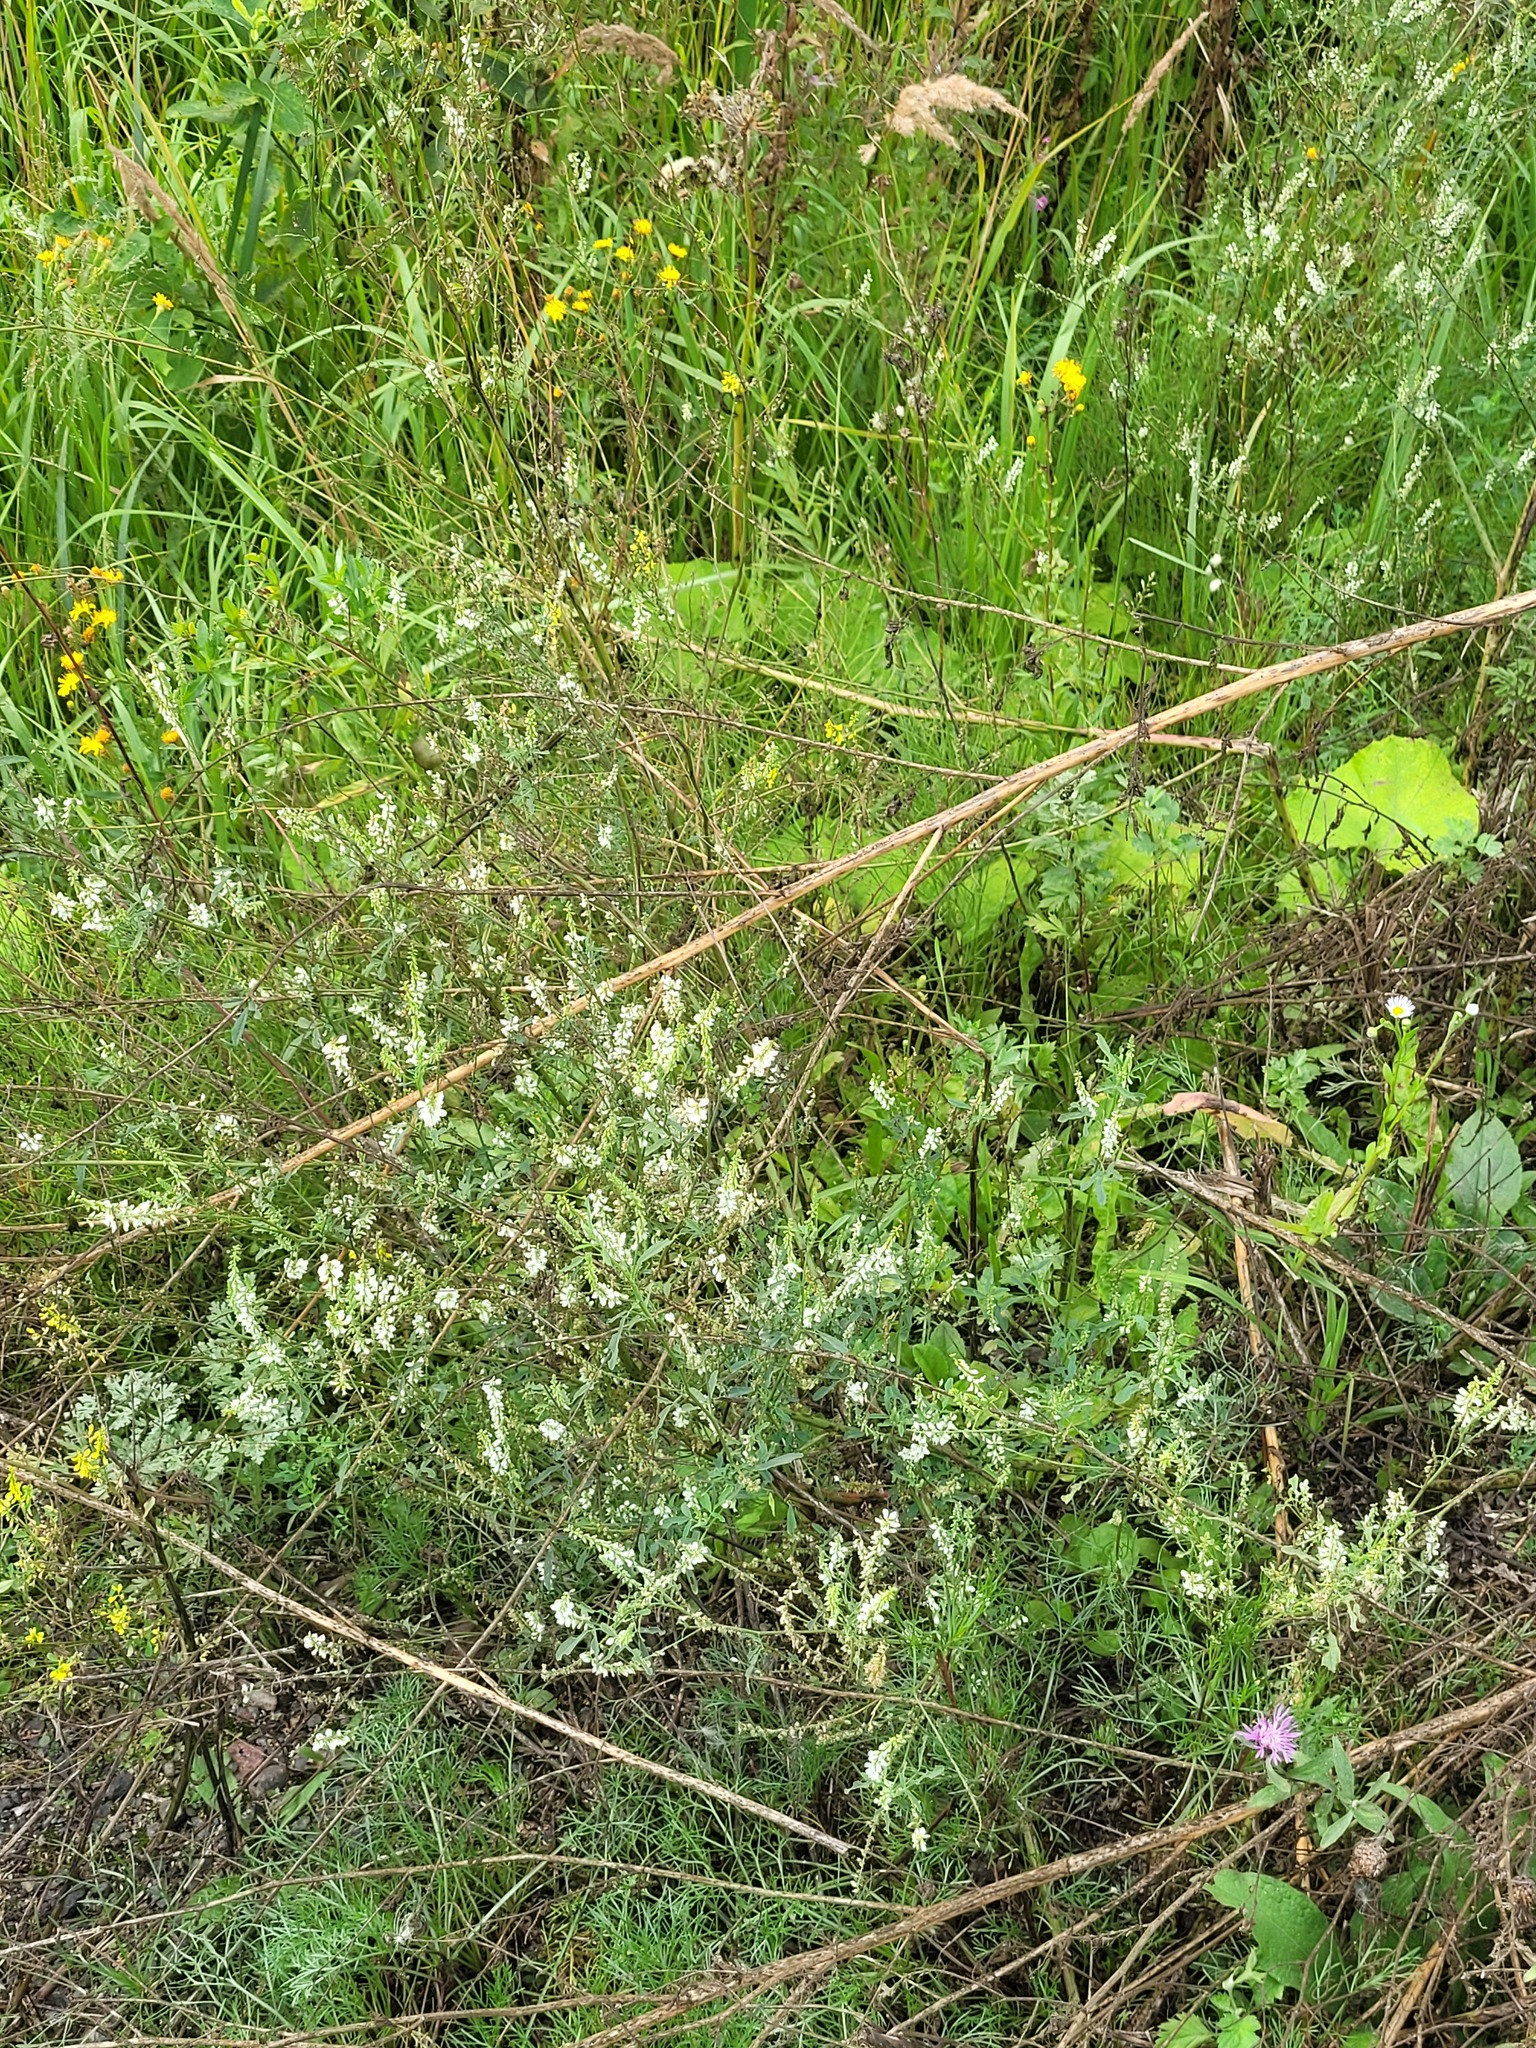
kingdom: Plantae
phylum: Tracheophyta
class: Magnoliopsida
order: Fabales
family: Fabaceae
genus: Melilotus
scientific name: Melilotus albus
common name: White melilot
